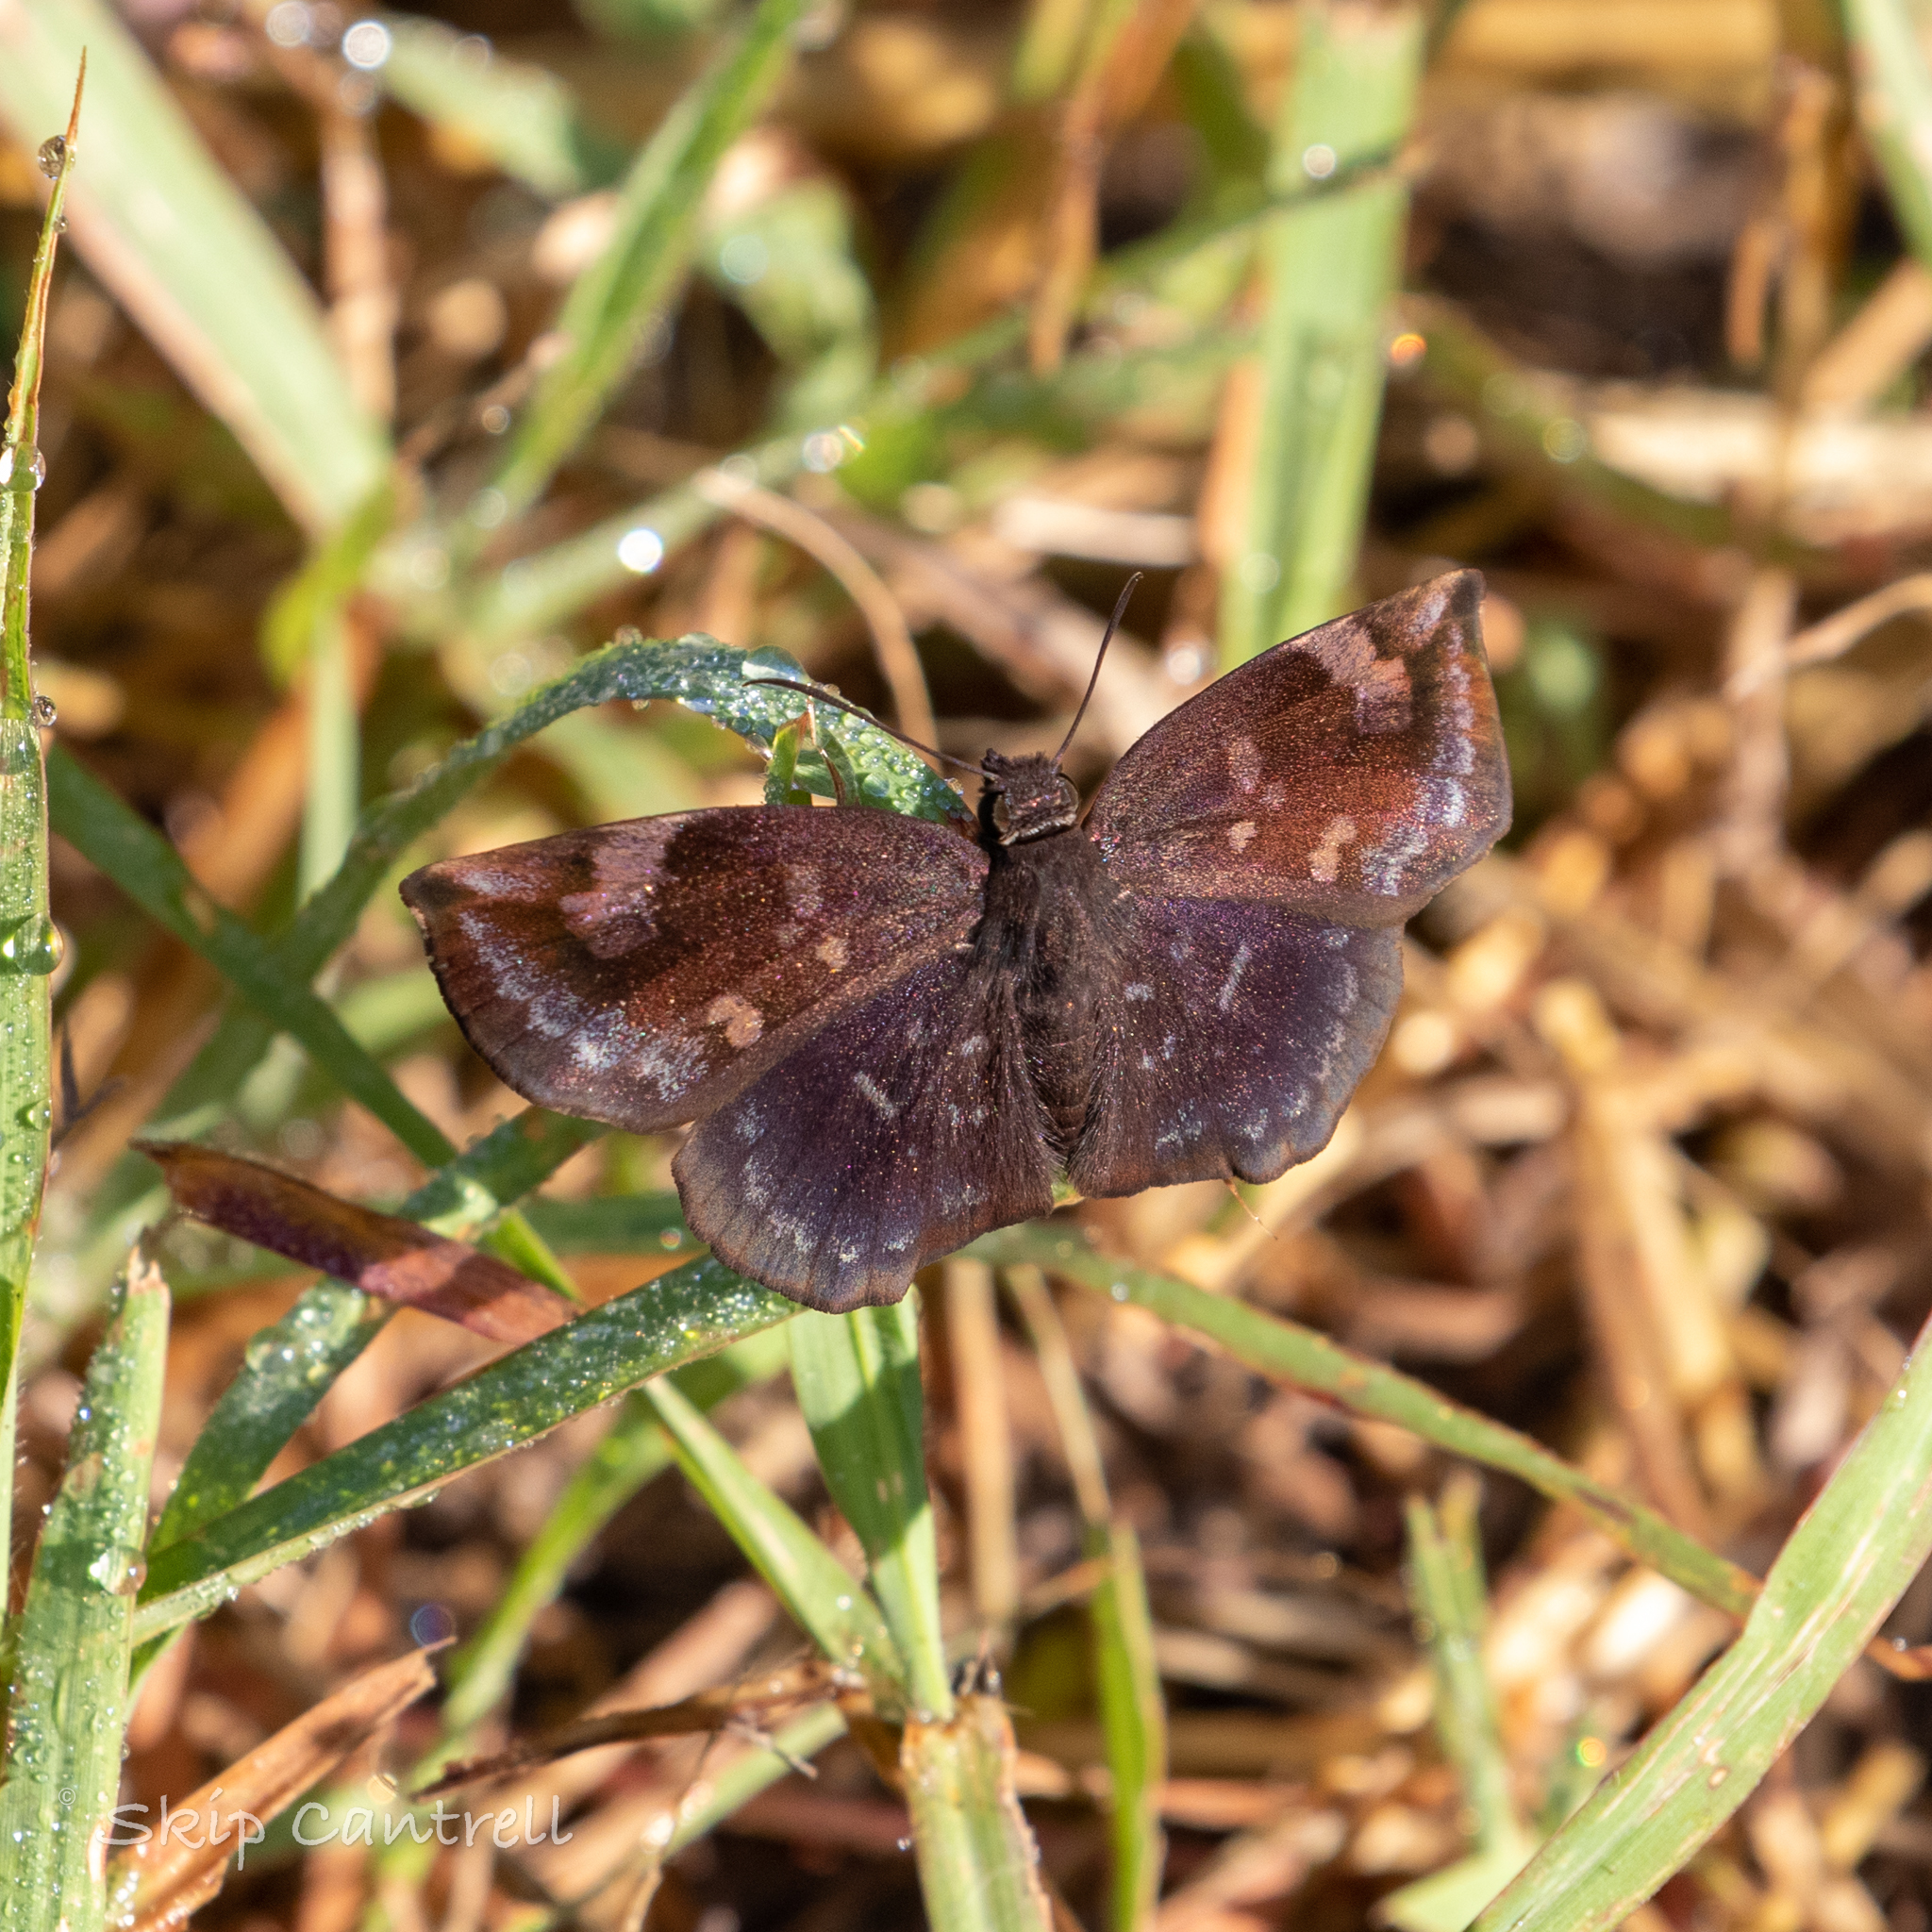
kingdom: Animalia
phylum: Arthropoda
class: Insecta
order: Lepidoptera
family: Hesperiidae
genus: Achlyodes
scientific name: Achlyodes thraso
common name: Sickle-winged skipper
